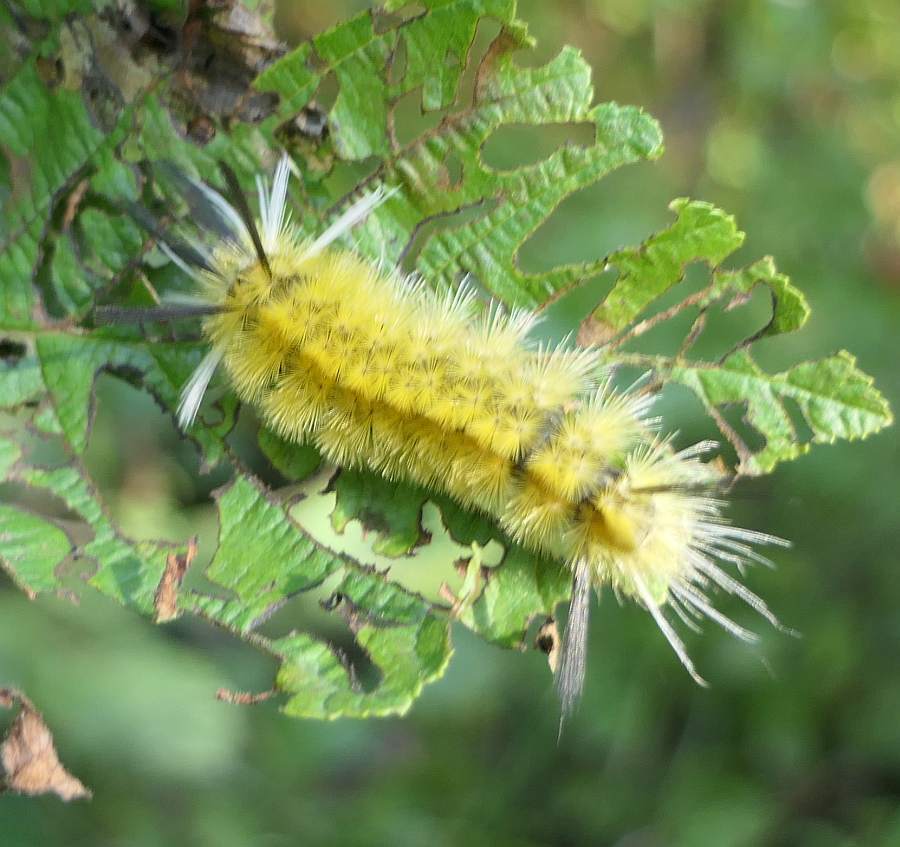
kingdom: Animalia
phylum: Arthropoda
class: Insecta
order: Lepidoptera
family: Erebidae
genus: Halysidota
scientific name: Halysidota tessellaris
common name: Banded tussock moth
